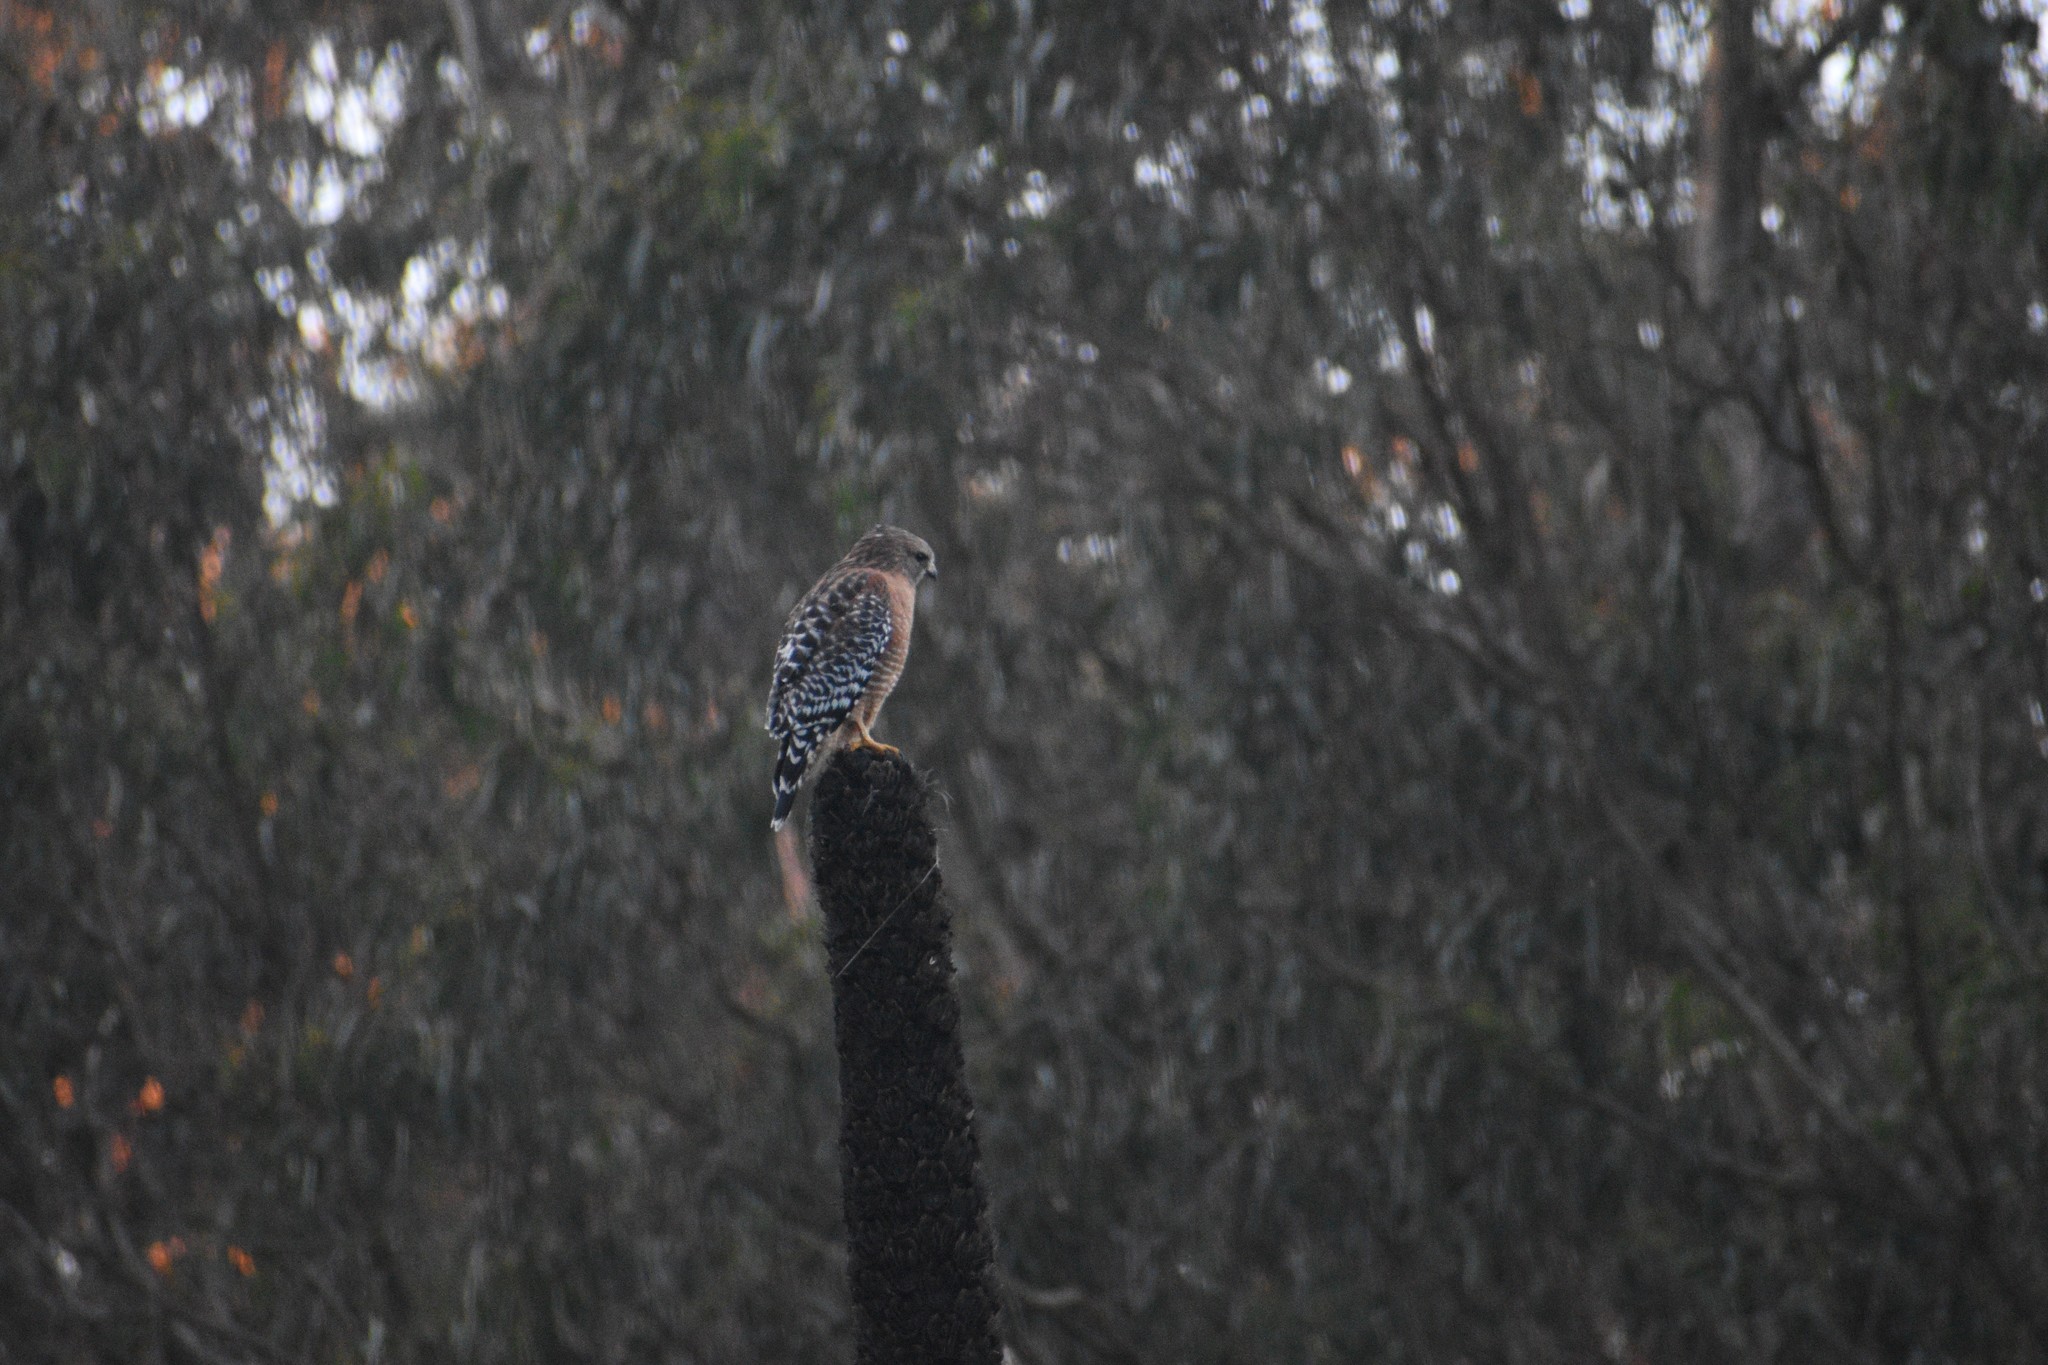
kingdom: Animalia
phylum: Chordata
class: Aves
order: Accipitriformes
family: Accipitridae
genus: Buteo
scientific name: Buteo lineatus
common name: Red-shouldered hawk
